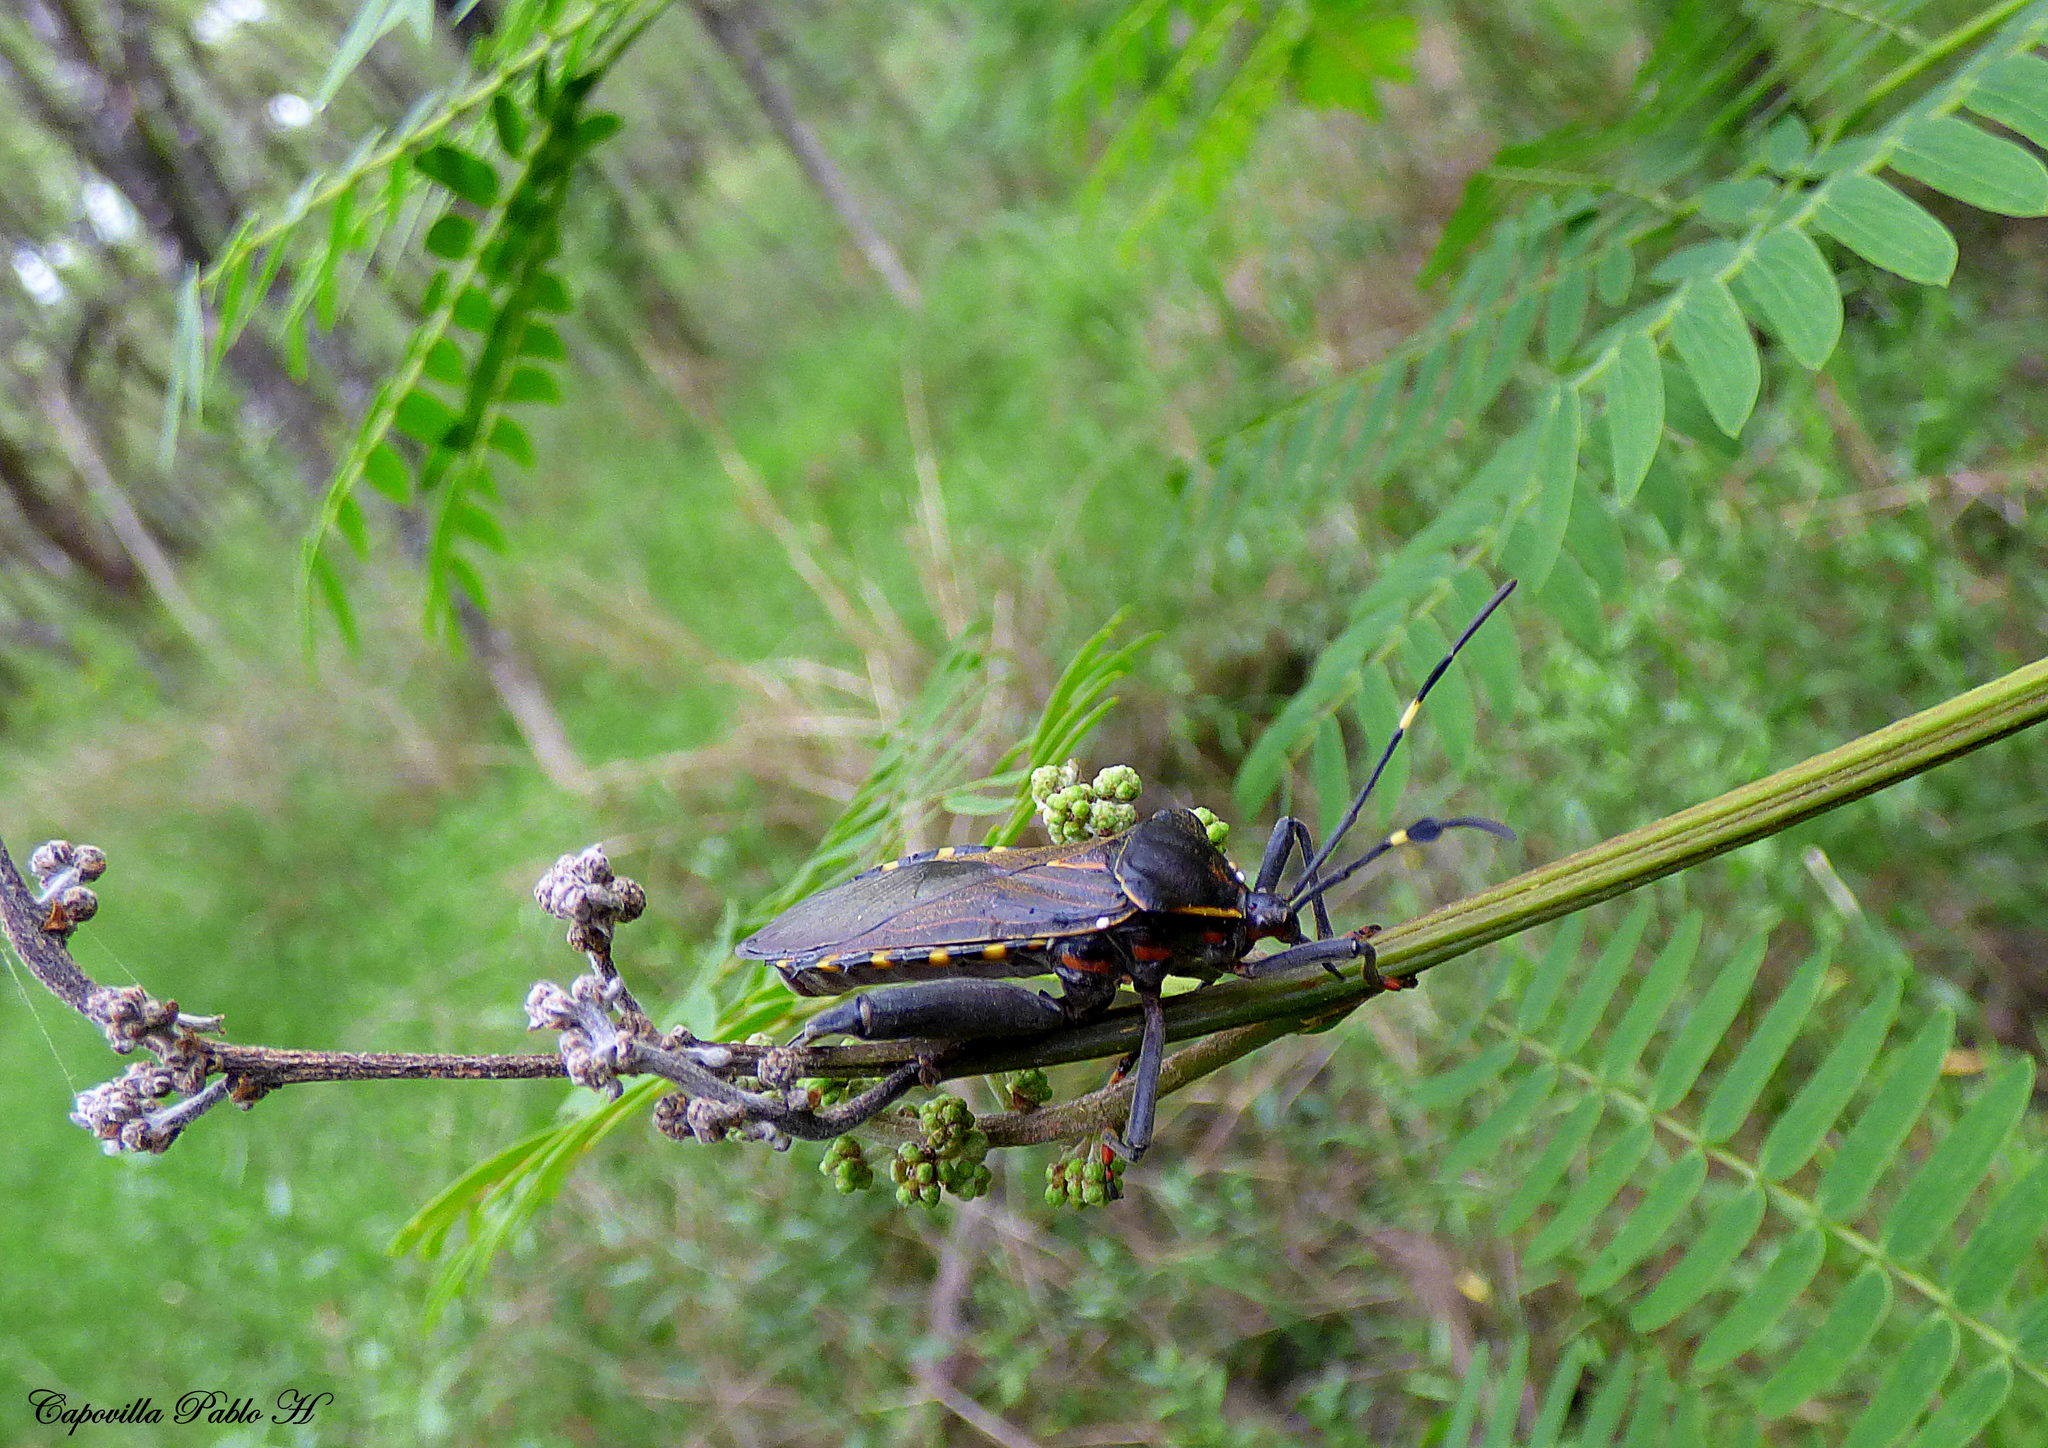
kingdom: Animalia
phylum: Arthropoda
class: Insecta
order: Hemiptera
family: Coreidae
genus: Pachylis
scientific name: Pachylis argentinus
